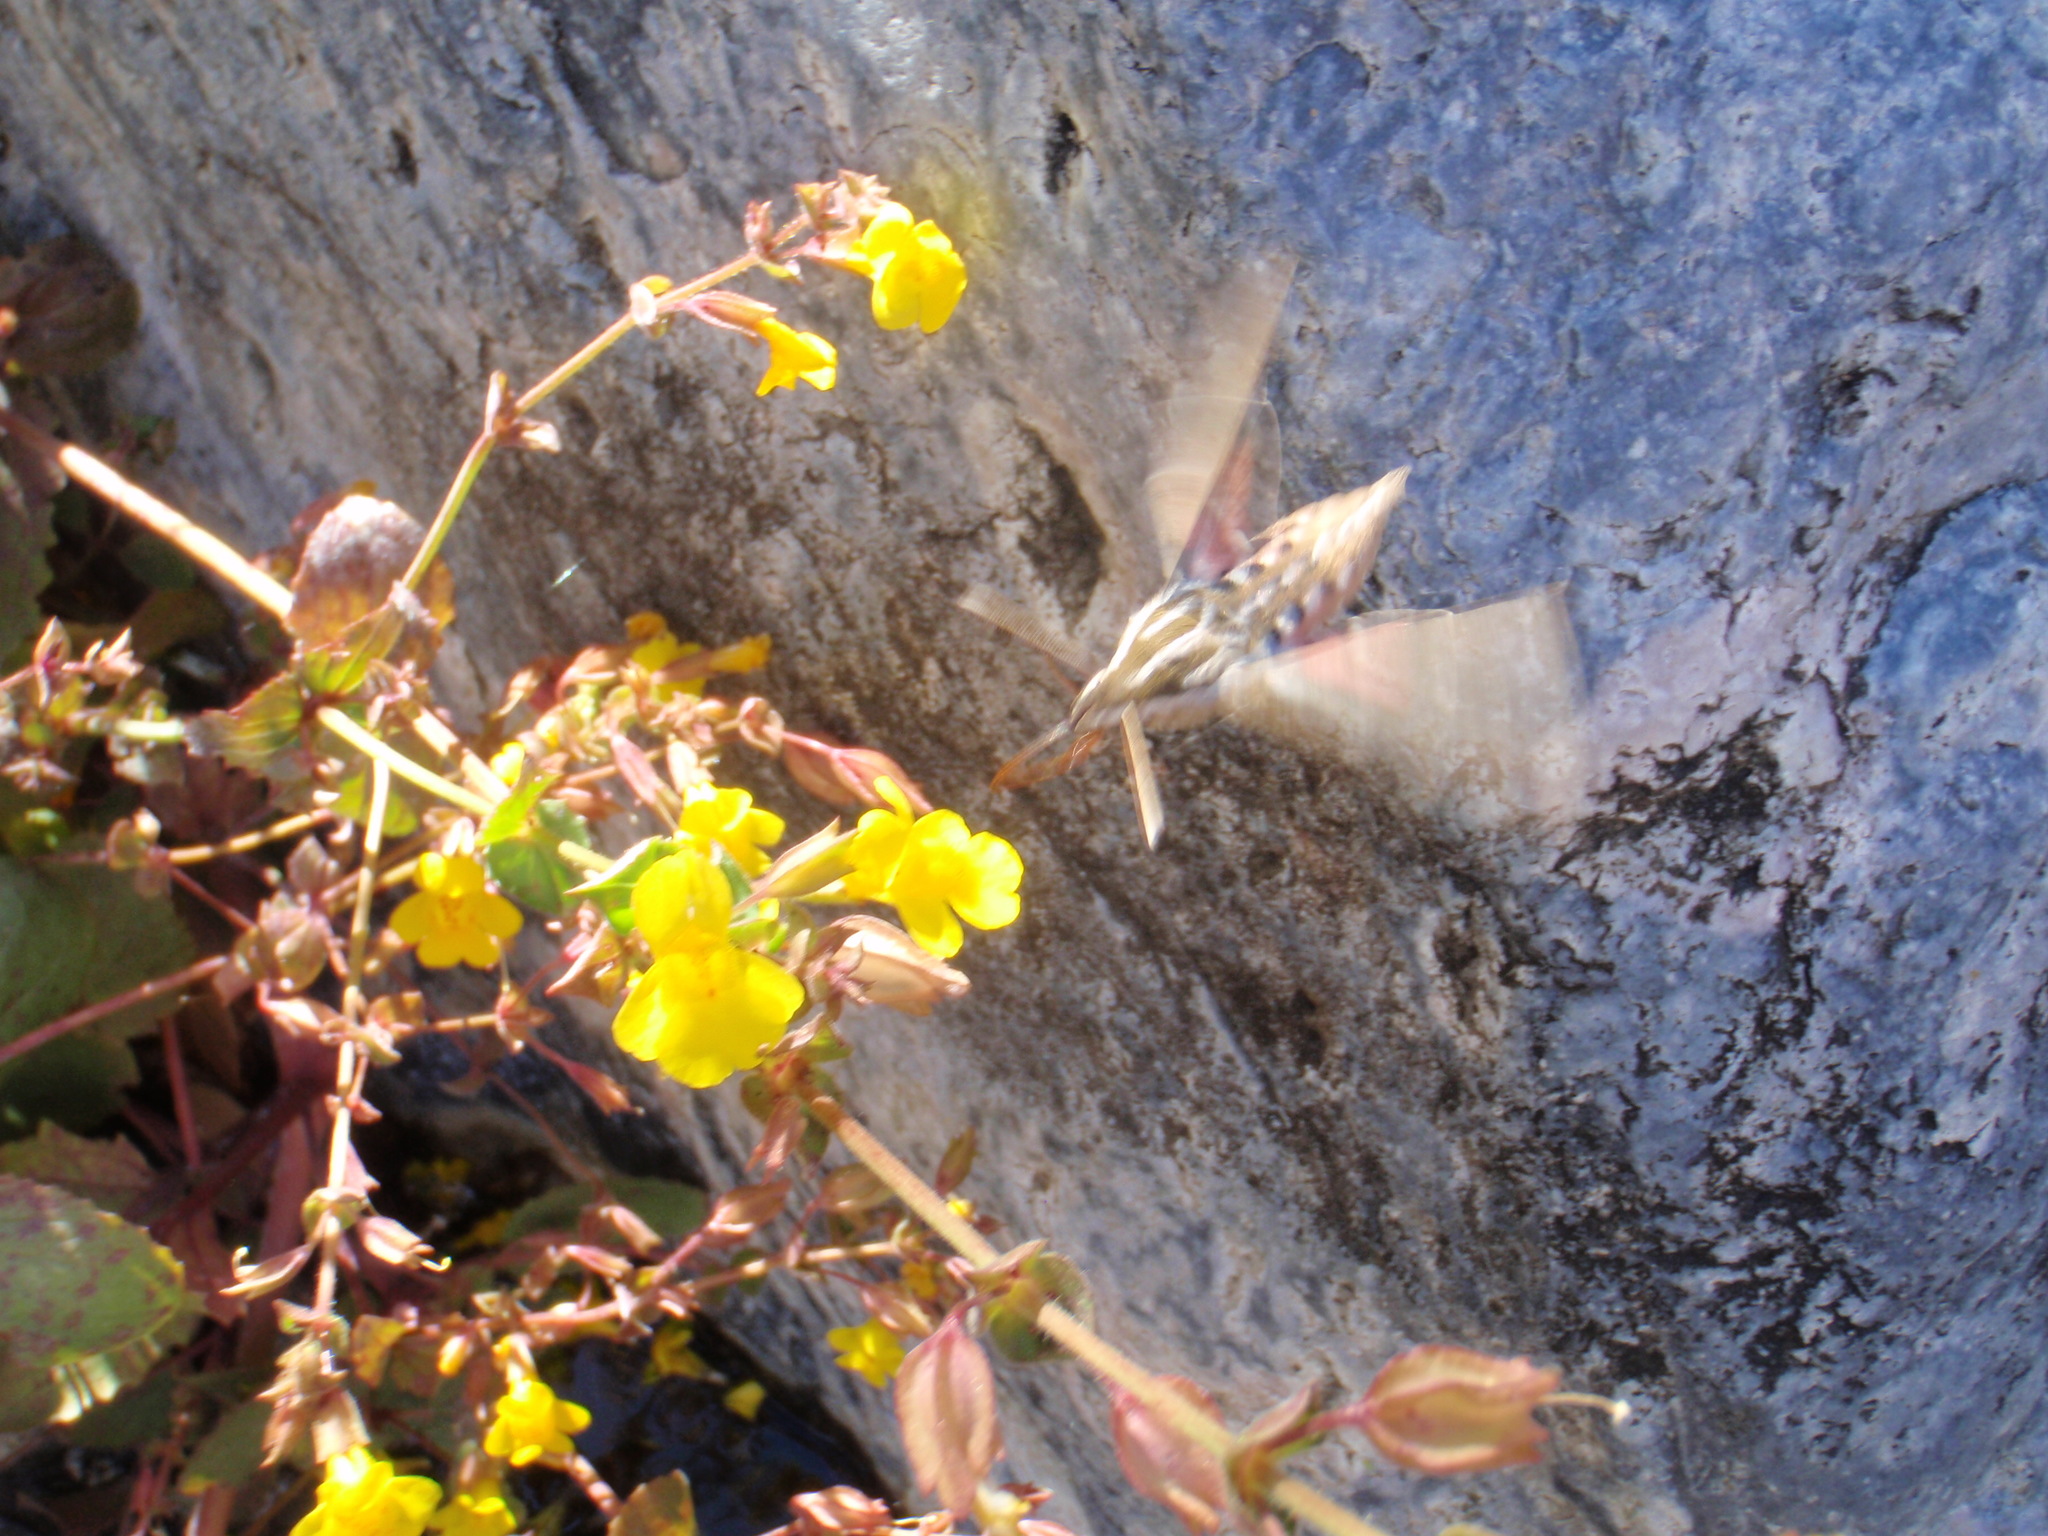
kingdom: Animalia
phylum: Arthropoda
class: Insecta
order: Lepidoptera
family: Sphingidae
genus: Hyles
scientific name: Hyles lineata
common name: White-lined sphinx
